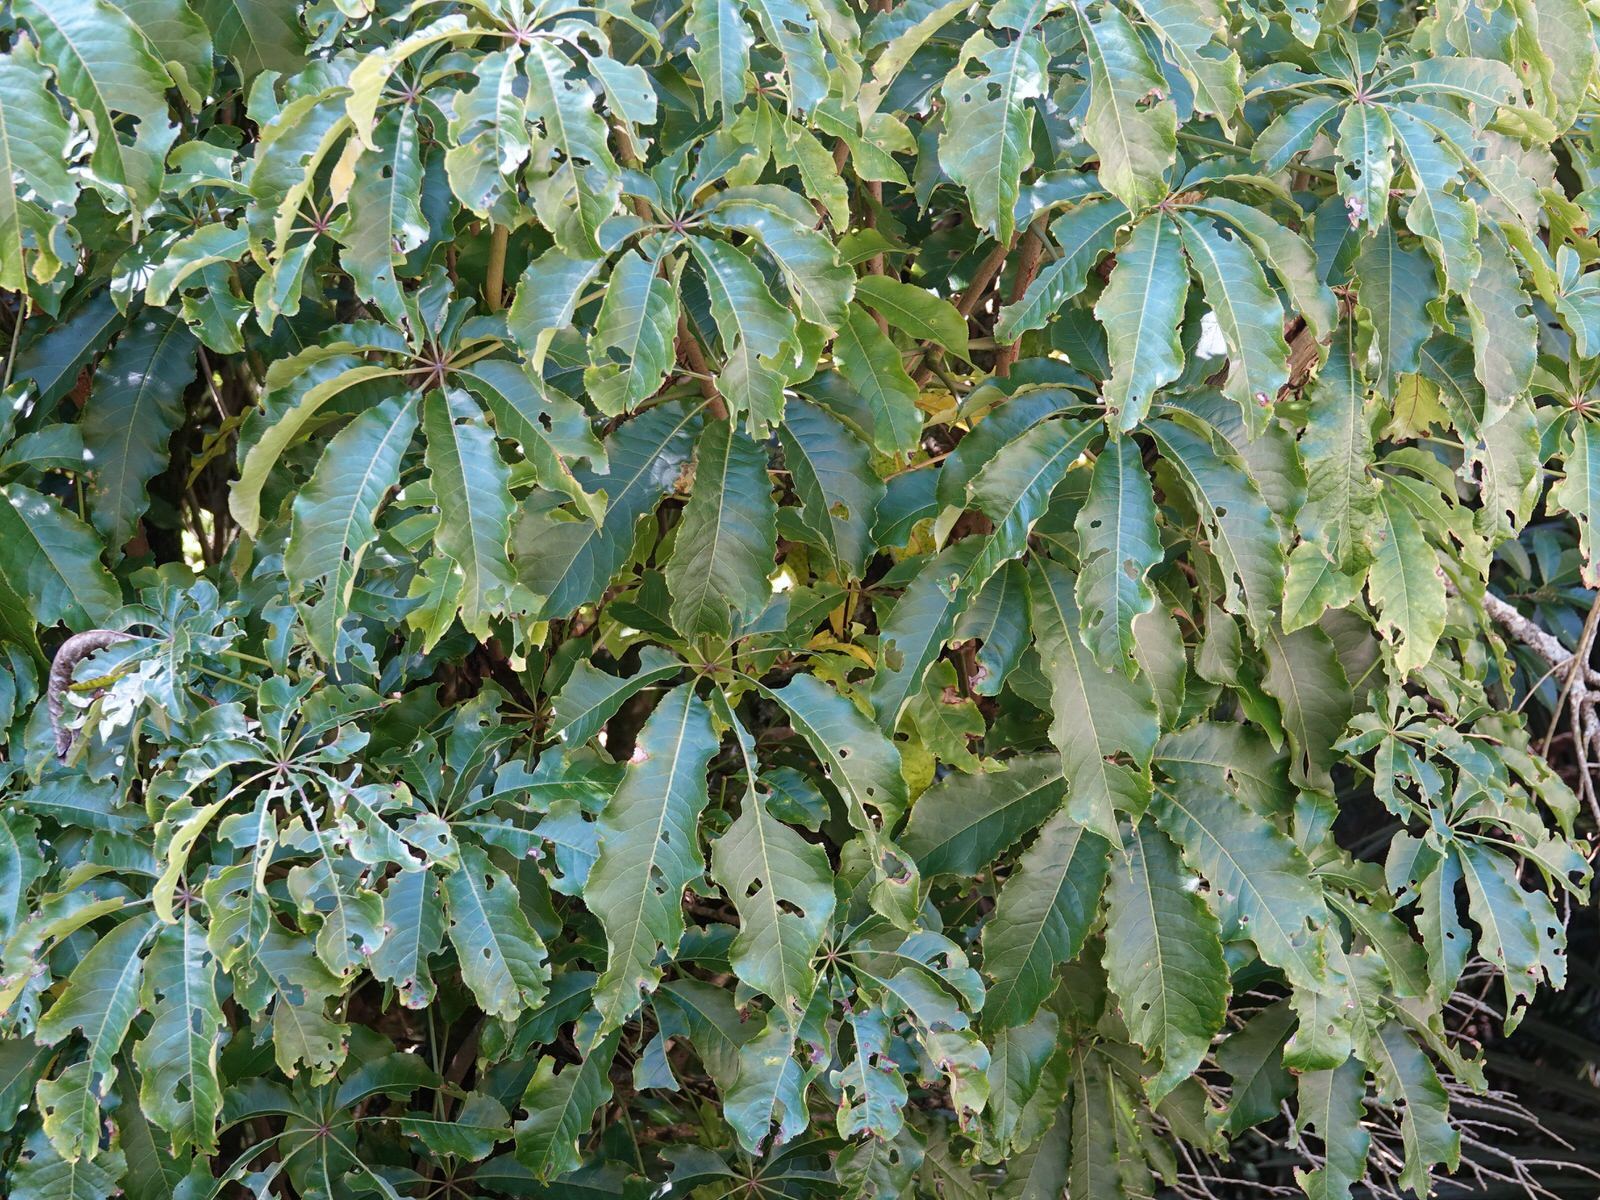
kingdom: Plantae
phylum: Tracheophyta
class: Magnoliopsida
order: Apiales
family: Araliaceae
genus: Schefflera
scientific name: Schefflera digitata
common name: Pate
